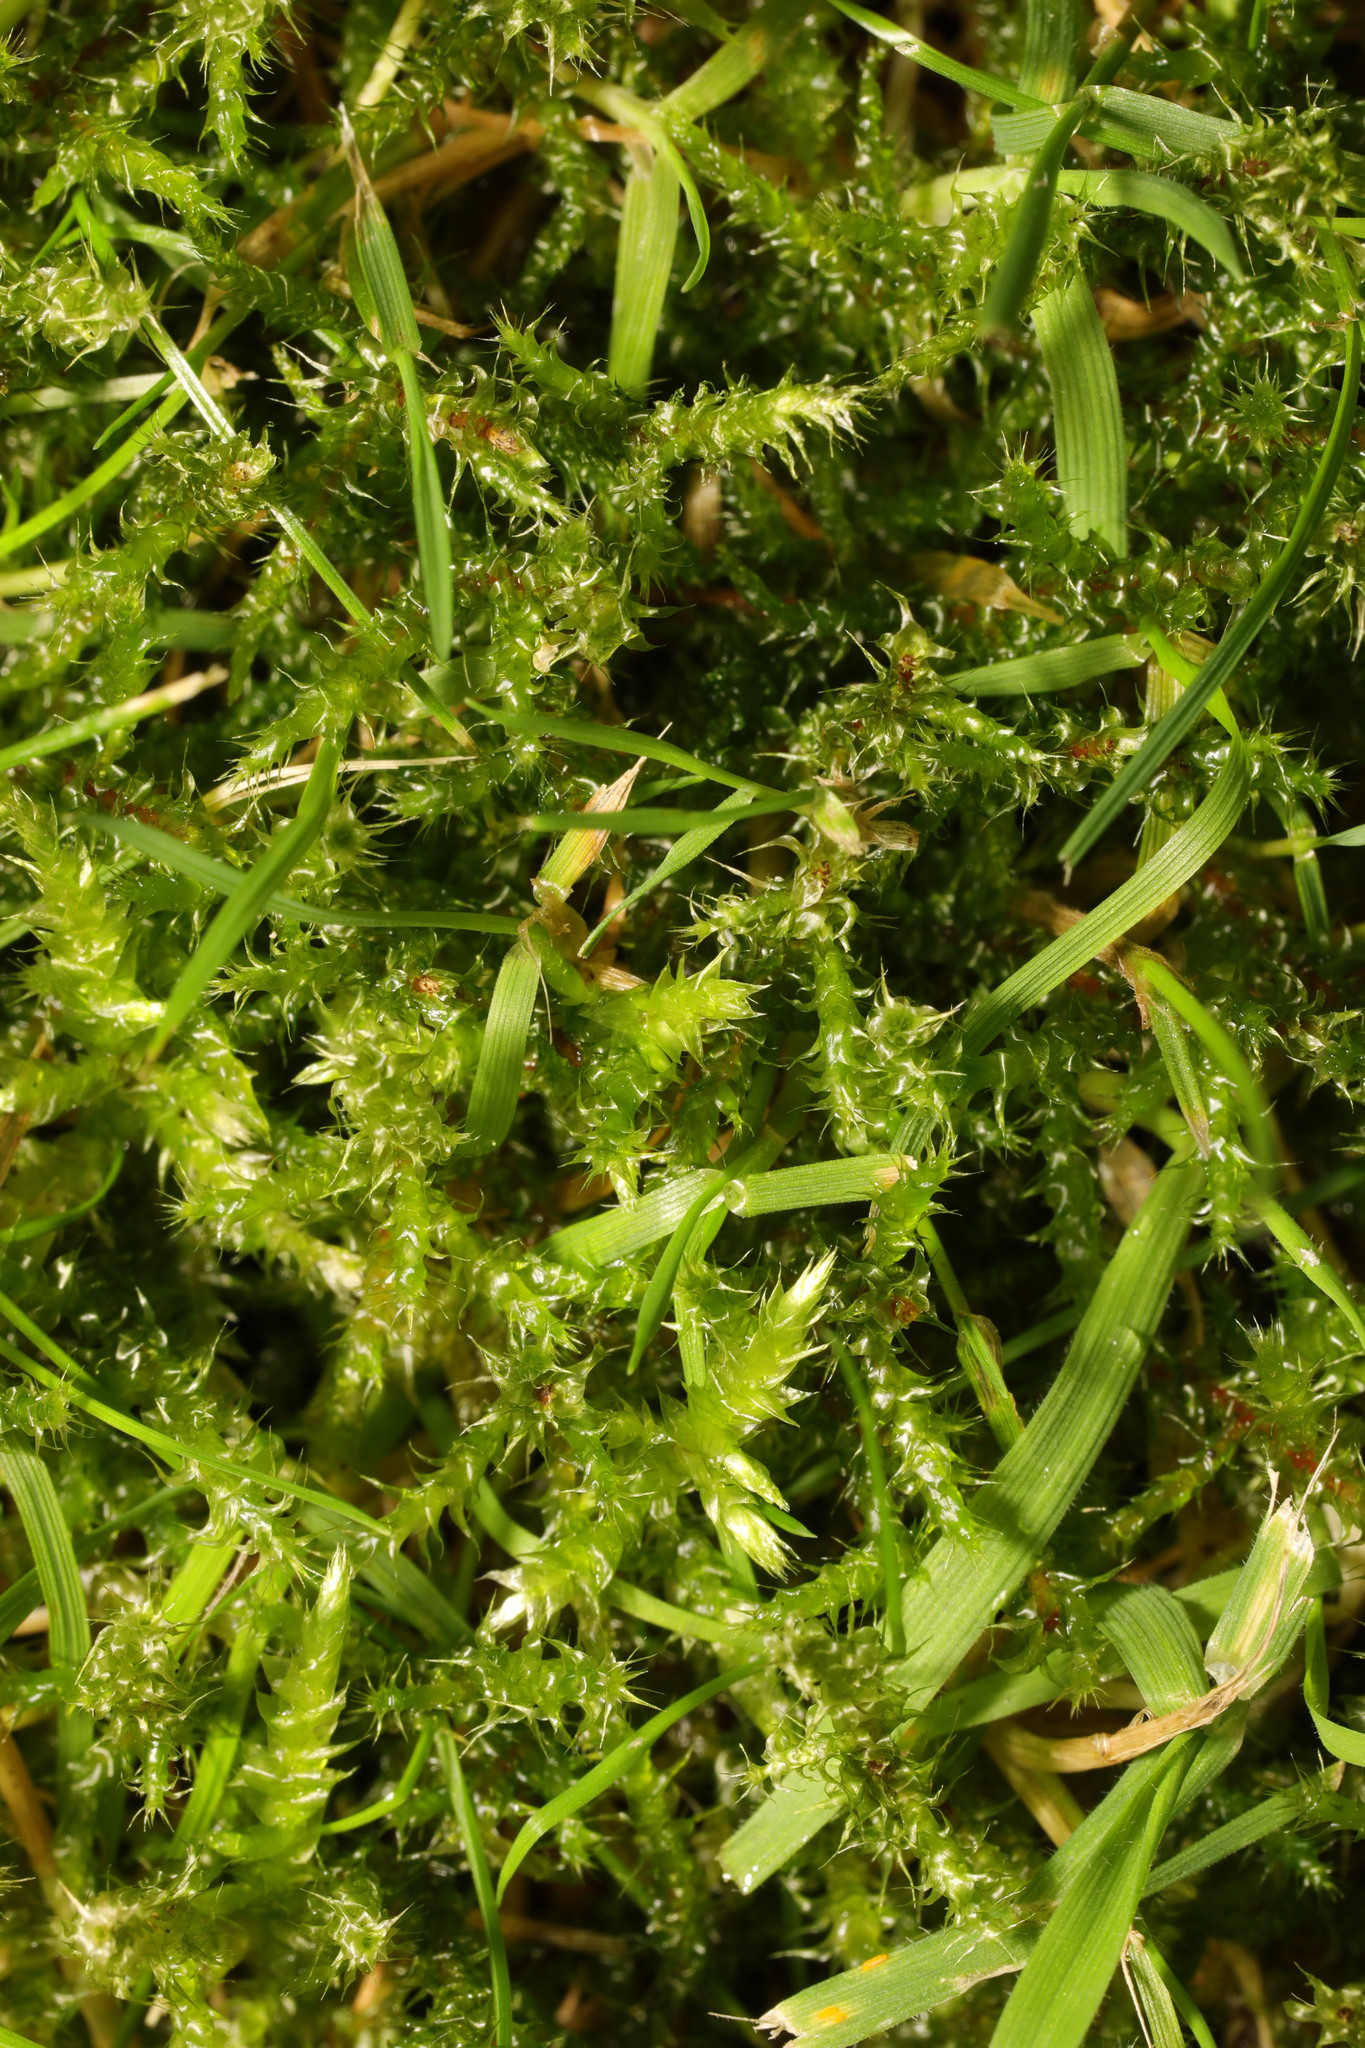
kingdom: Plantae
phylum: Bryophyta
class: Bryopsida
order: Hypnales
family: Hylocomiaceae
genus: Rhytidiadelphus
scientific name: Rhytidiadelphus squarrosus
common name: Springy turf-moss
